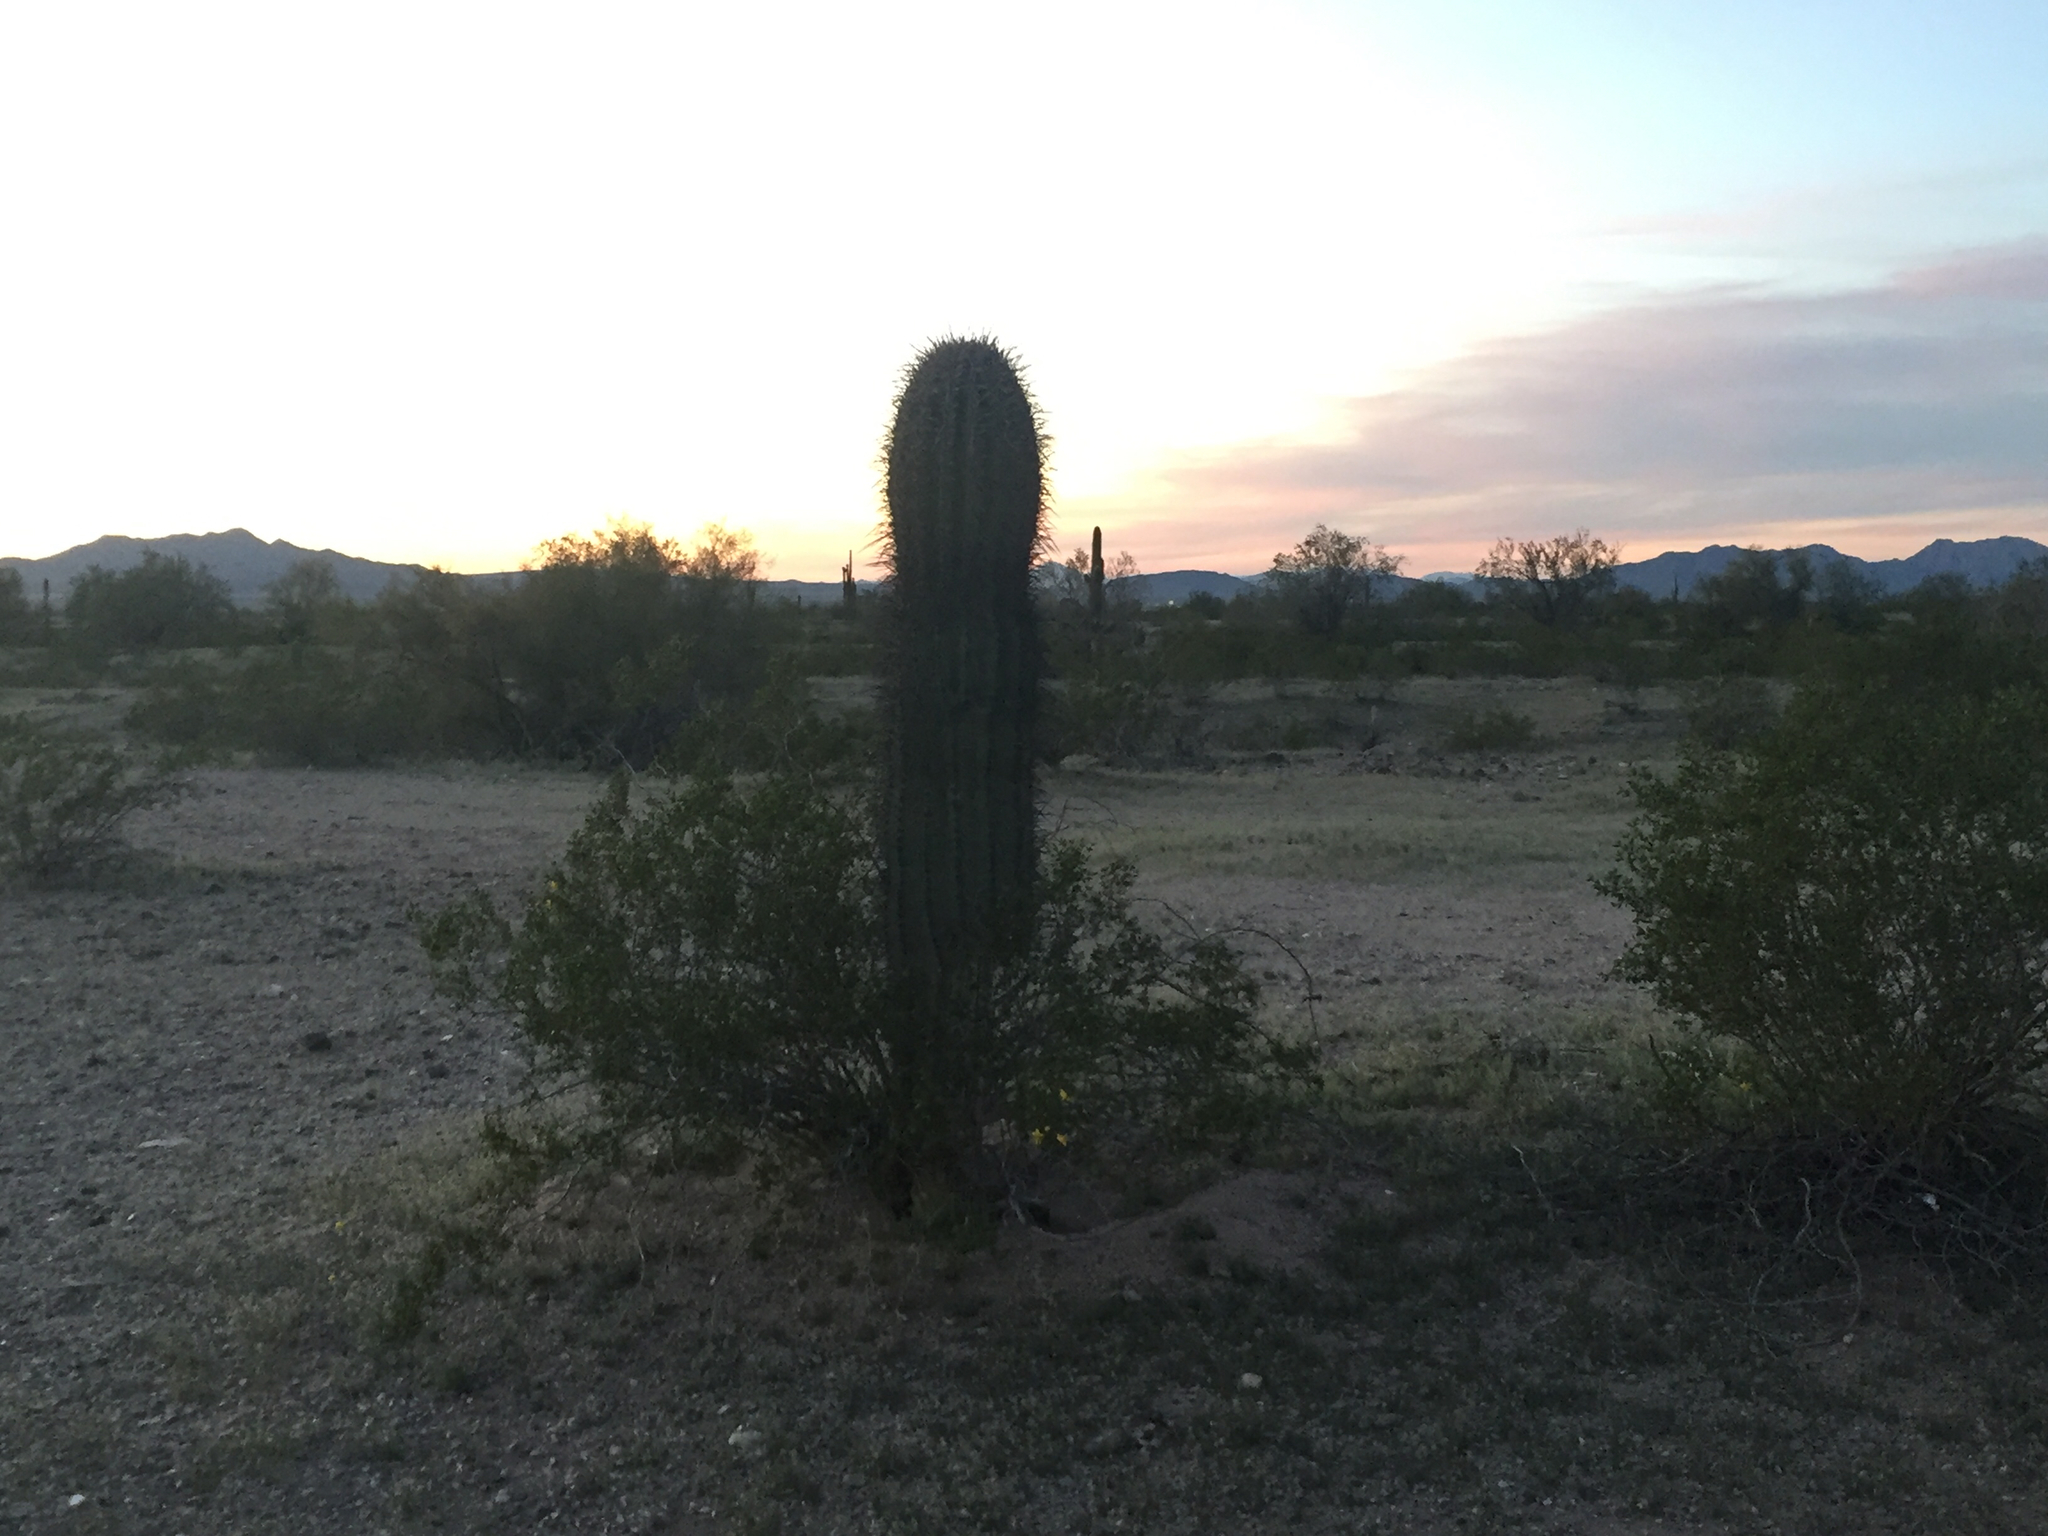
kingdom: Plantae
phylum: Tracheophyta
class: Magnoliopsida
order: Caryophyllales
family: Cactaceae
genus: Carnegiea
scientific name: Carnegiea gigantea
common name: Saguaro
